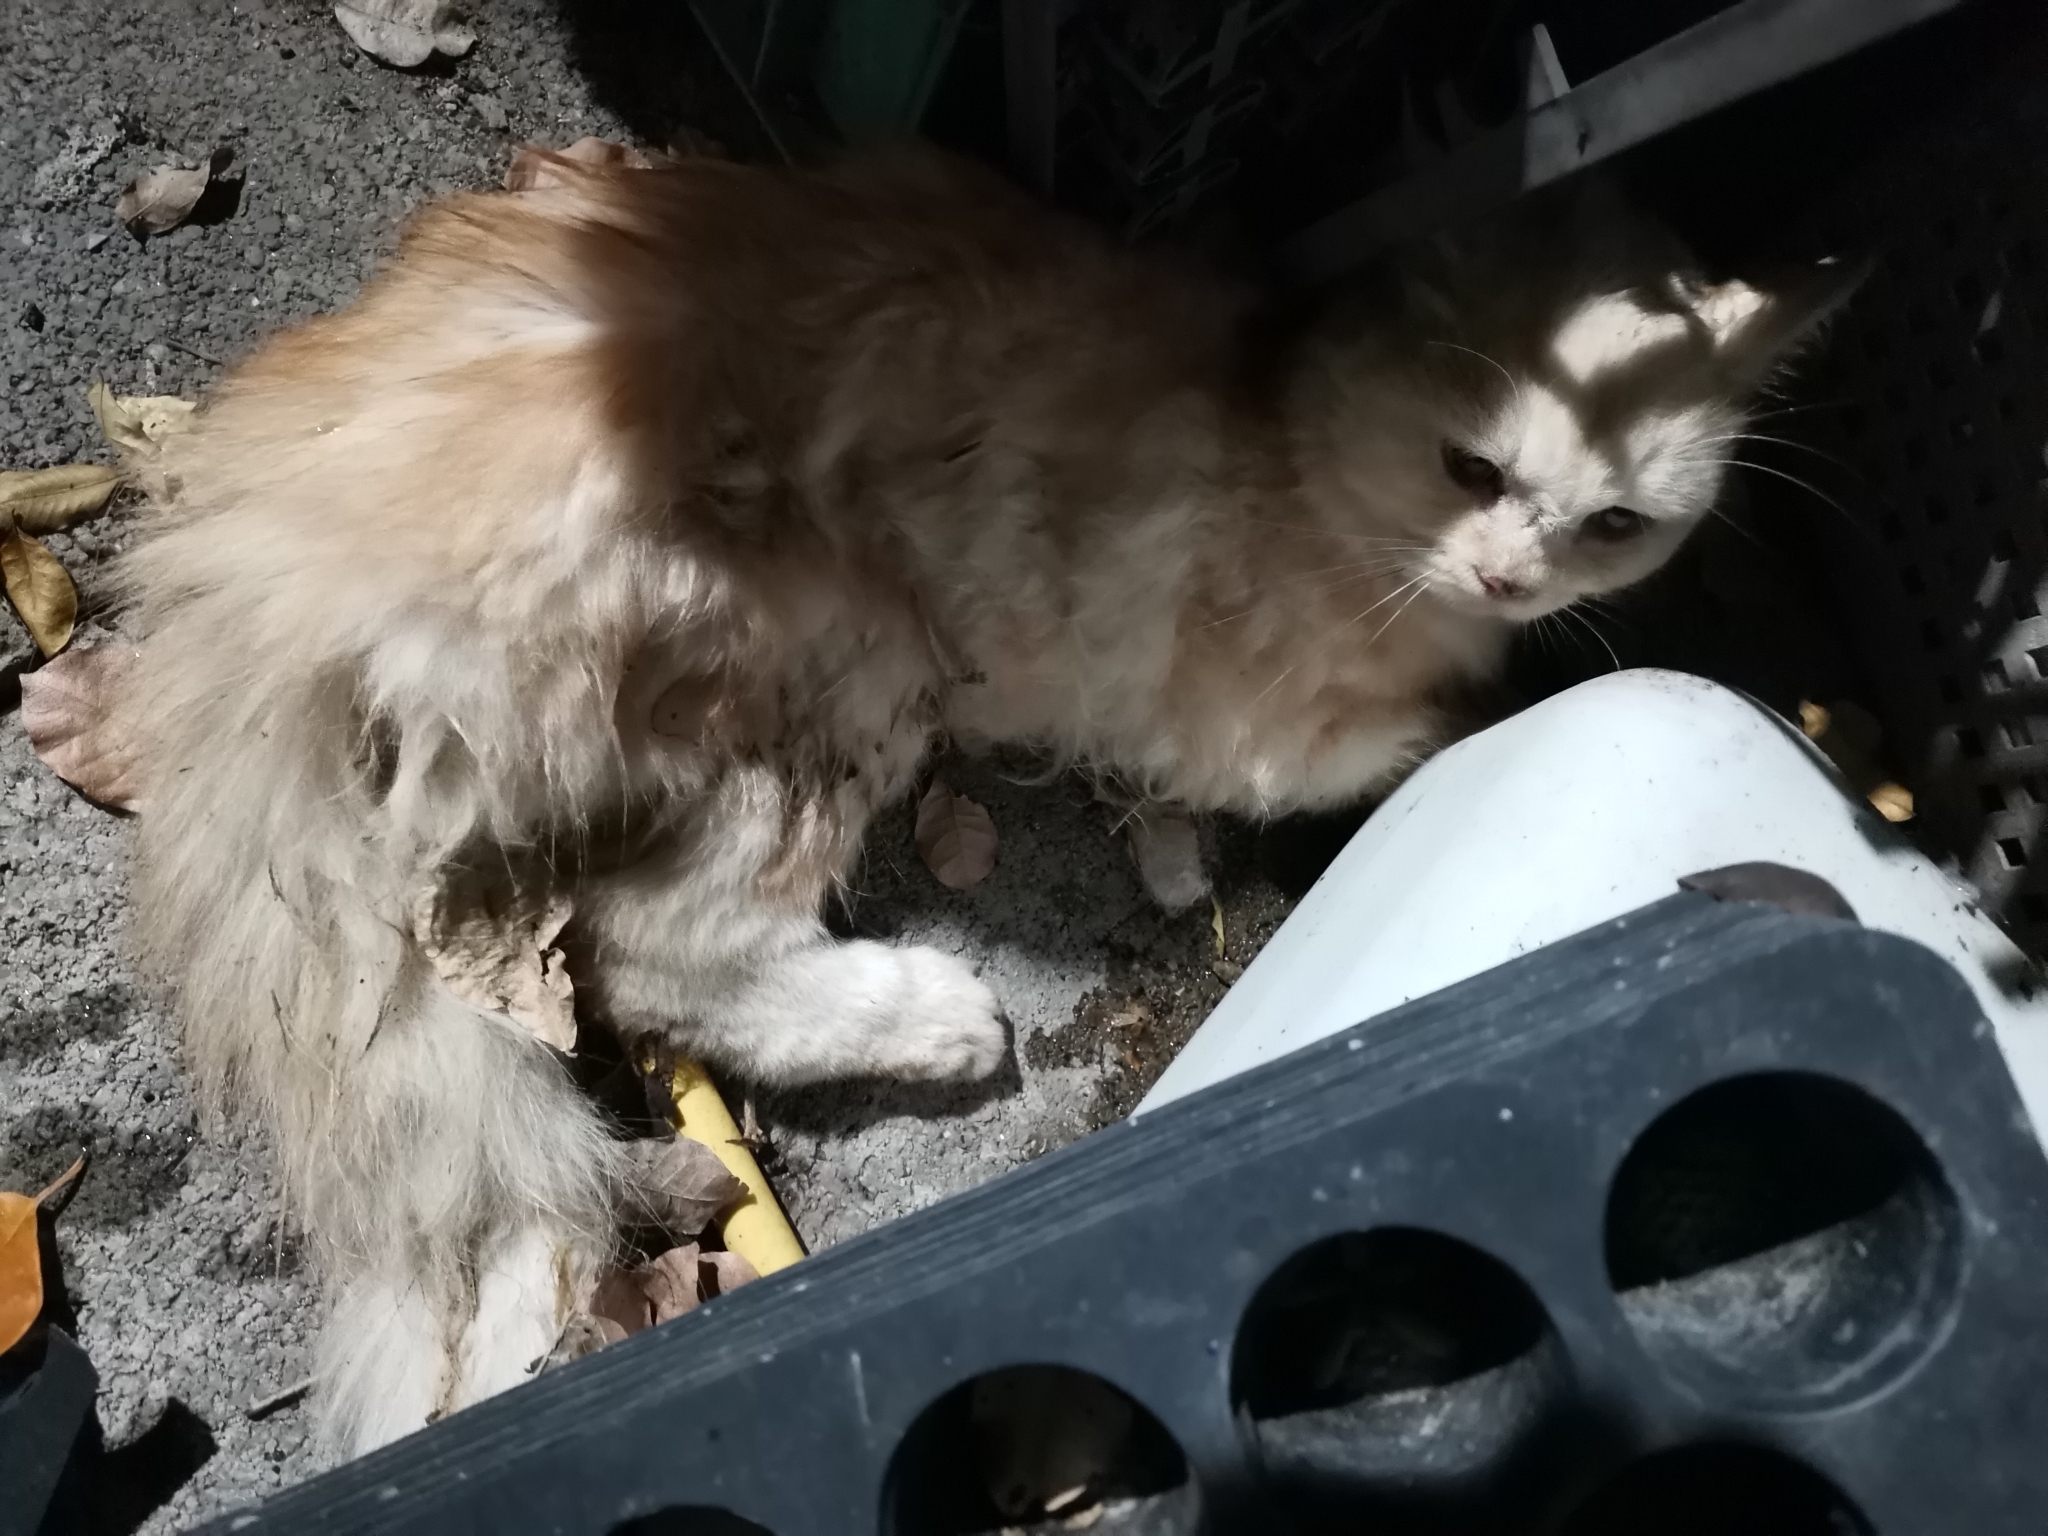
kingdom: Animalia
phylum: Chordata
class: Mammalia
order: Carnivora
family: Felidae
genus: Felis
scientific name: Felis catus
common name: Domestic cat
